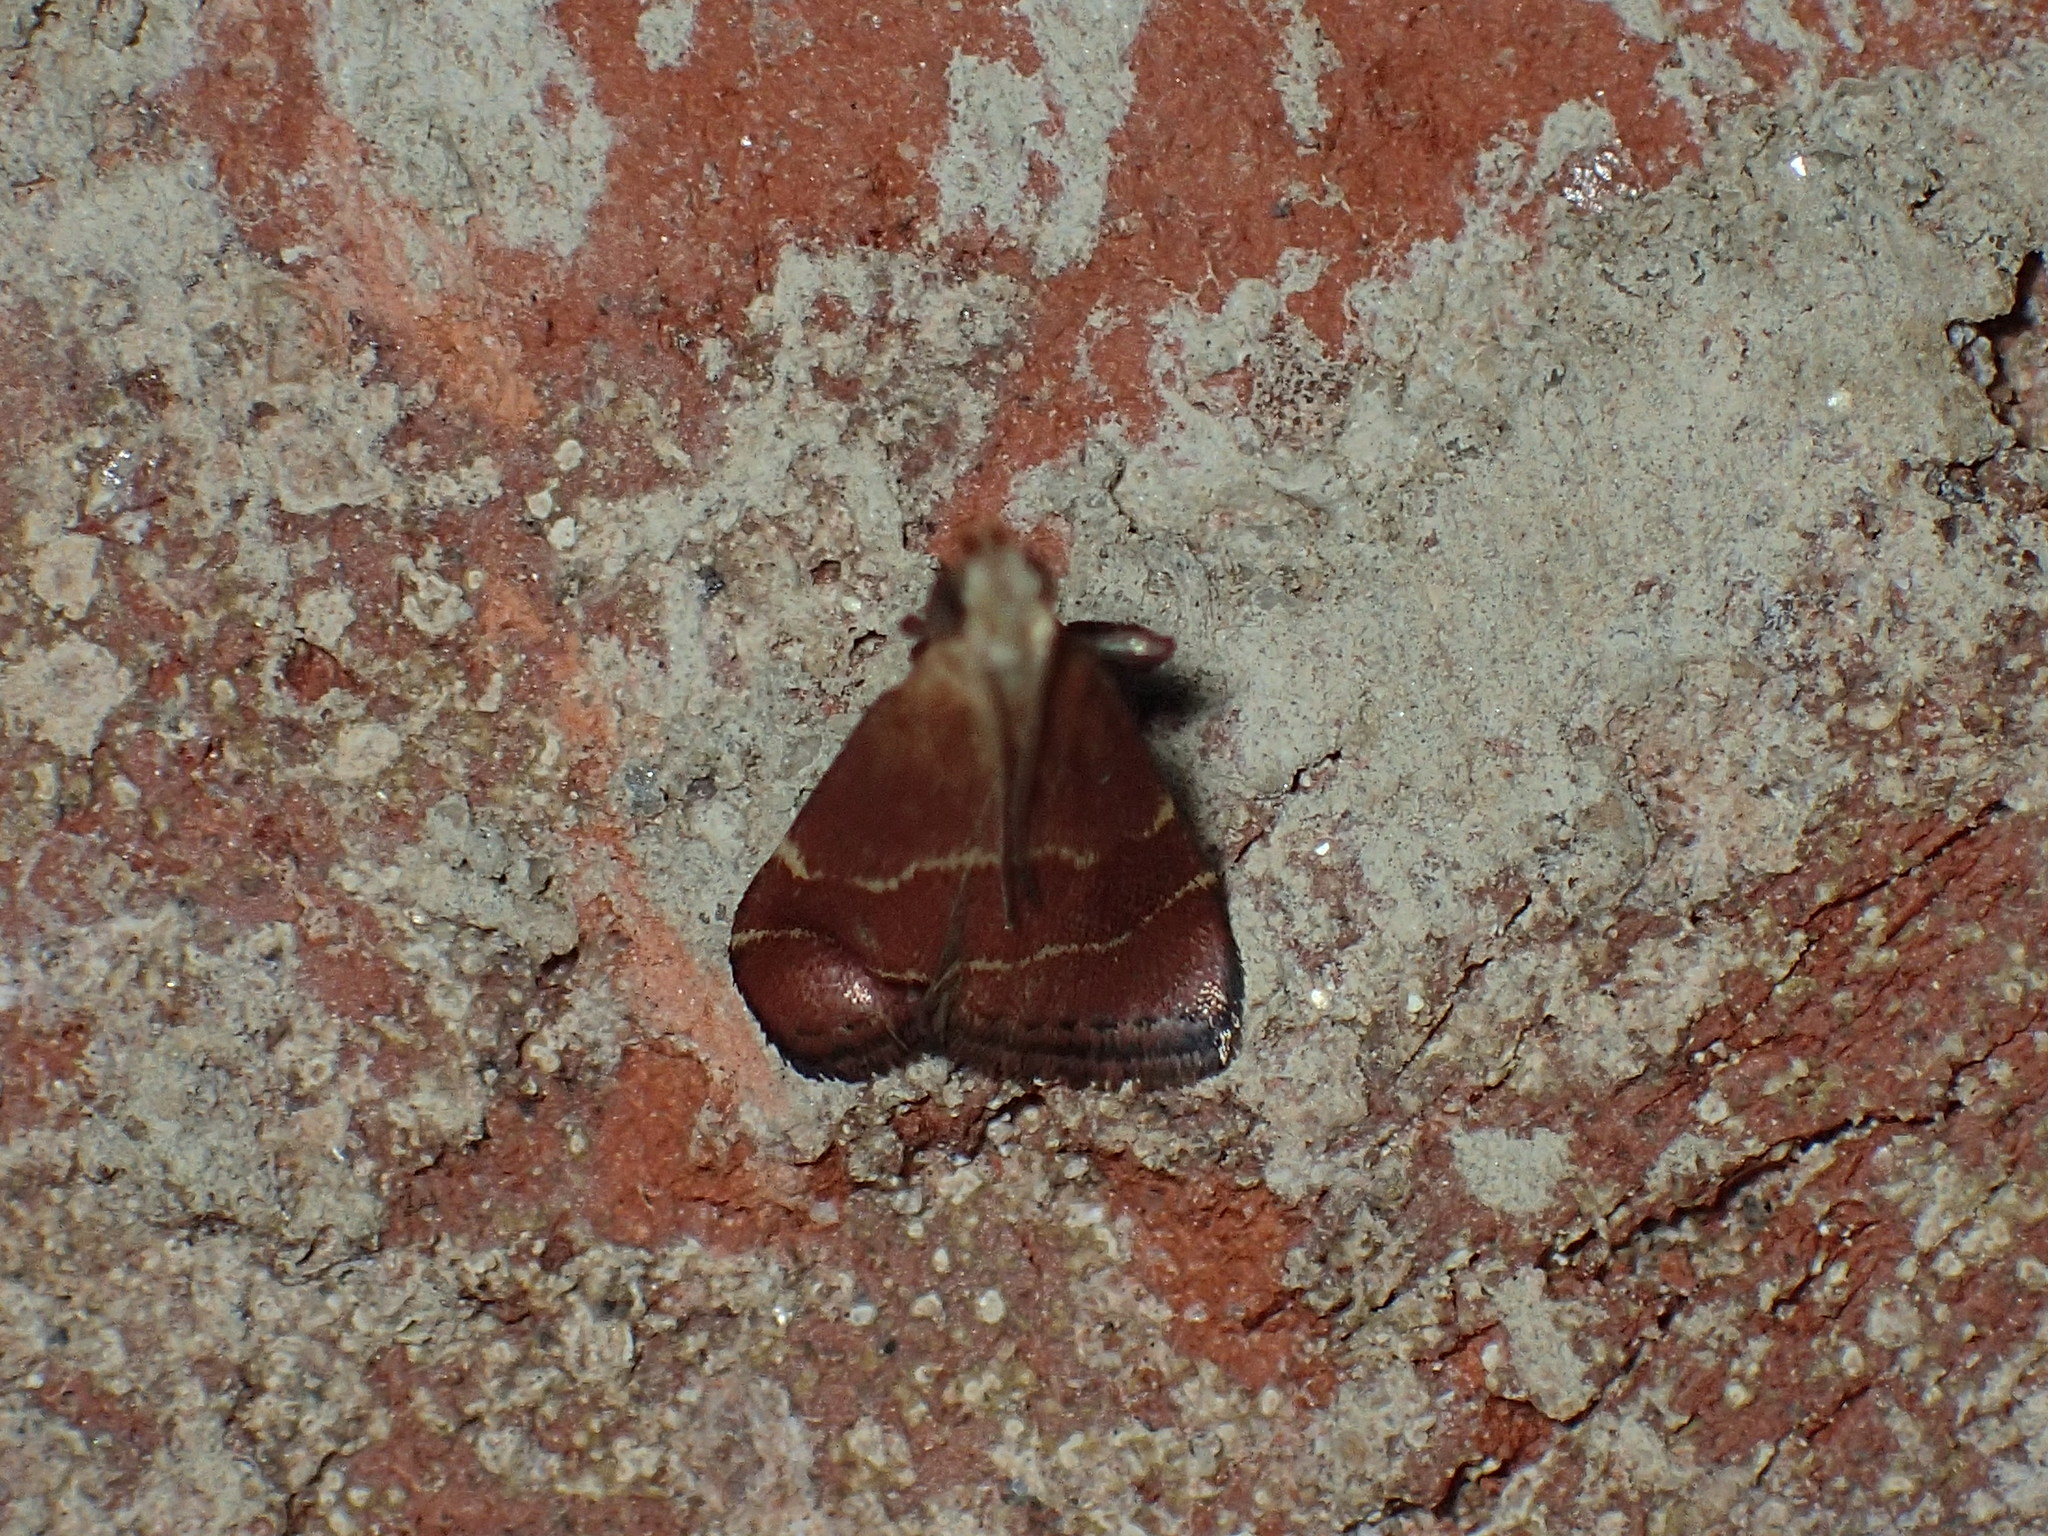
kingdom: Animalia
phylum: Arthropoda
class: Insecta
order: Lepidoptera
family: Pyralidae
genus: Arta
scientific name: Arta statalis
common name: Posturing arta moth
